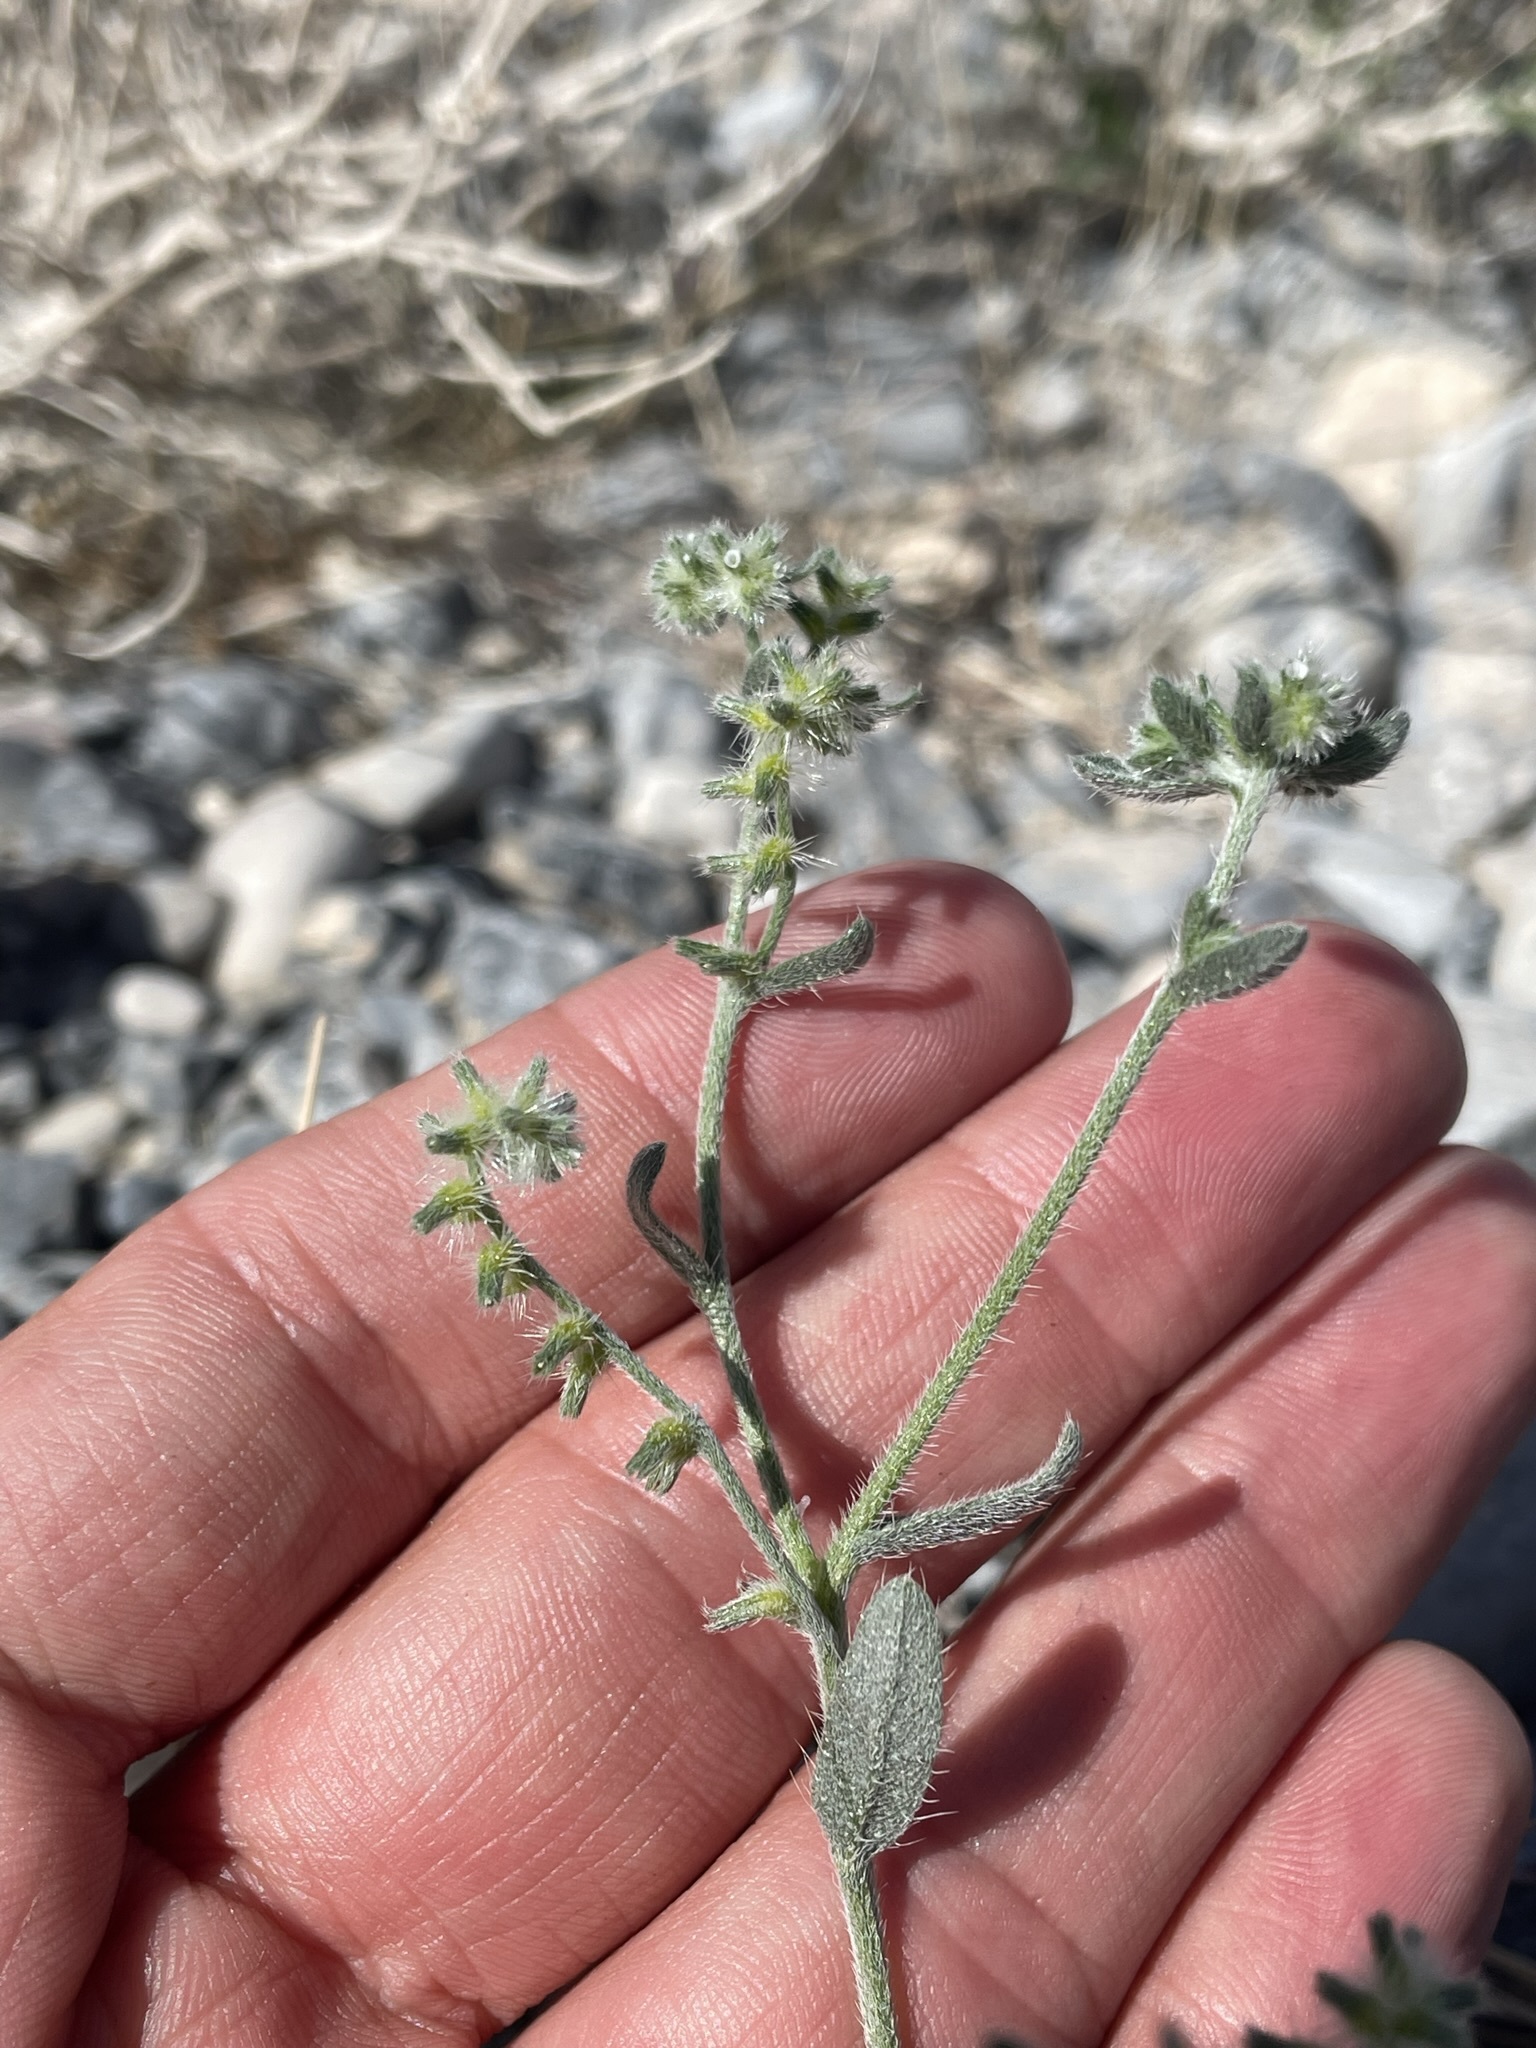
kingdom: Plantae
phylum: Tracheophyta
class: Magnoliopsida
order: Boraginales
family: Boraginaceae
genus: Cryptantha
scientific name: Cryptantha recurvata
